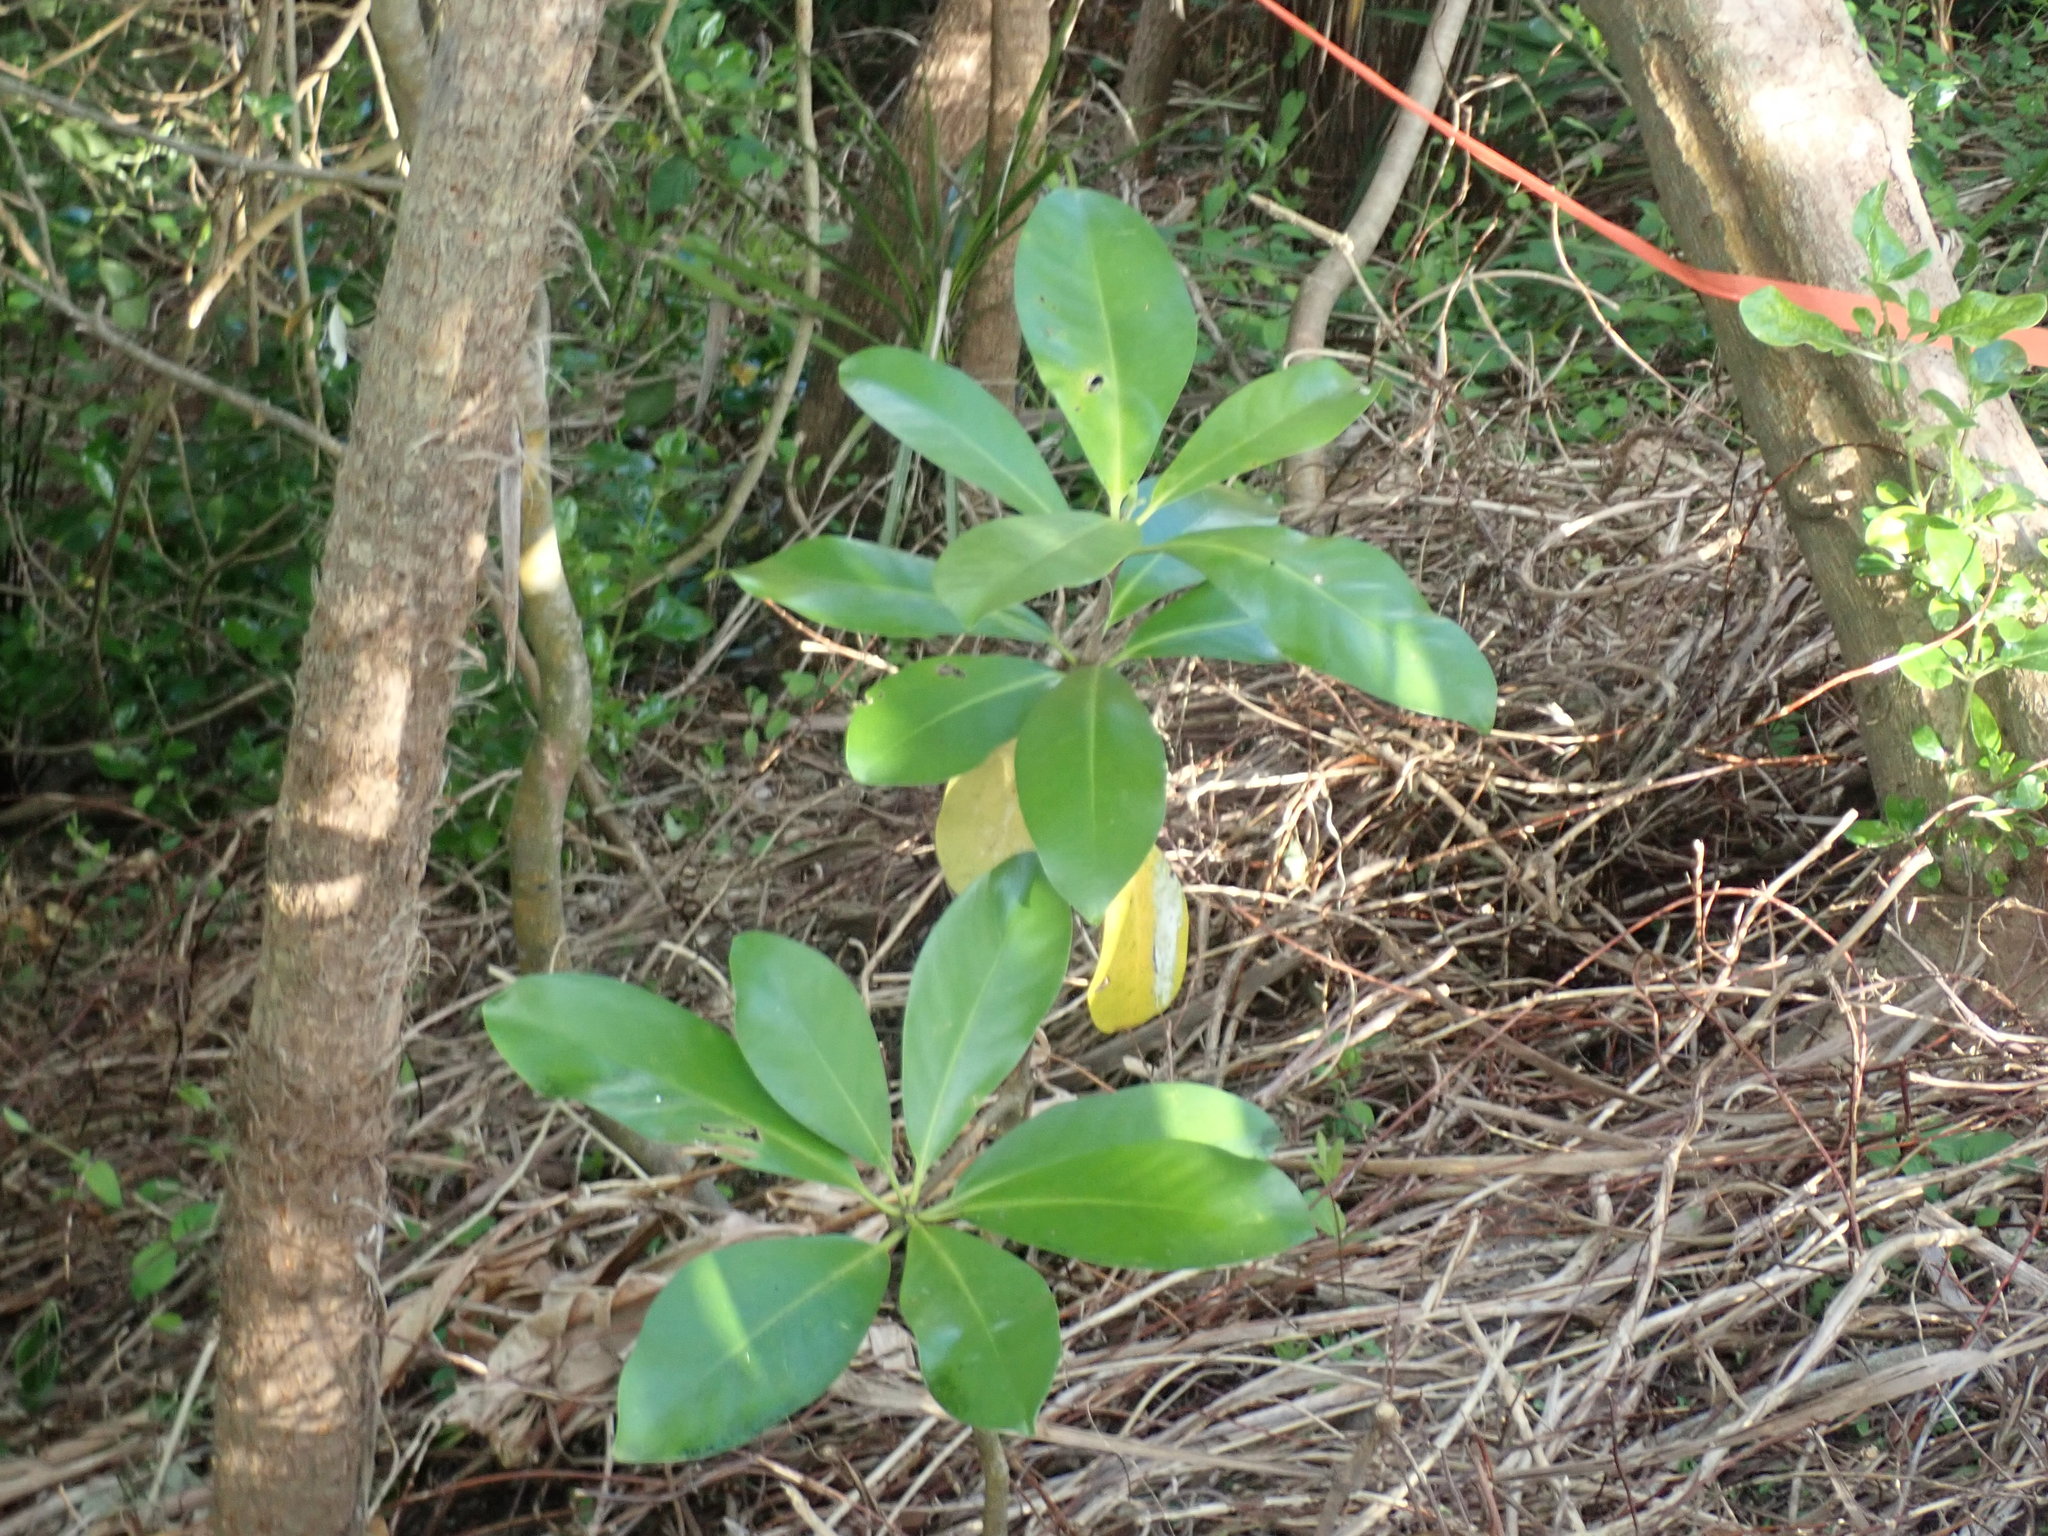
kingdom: Plantae
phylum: Tracheophyta
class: Magnoliopsida
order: Cucurbitales
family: Corynocarpaceae
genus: Corynocarpus
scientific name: Corynocarpus laevigatus
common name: New zealand laurel
